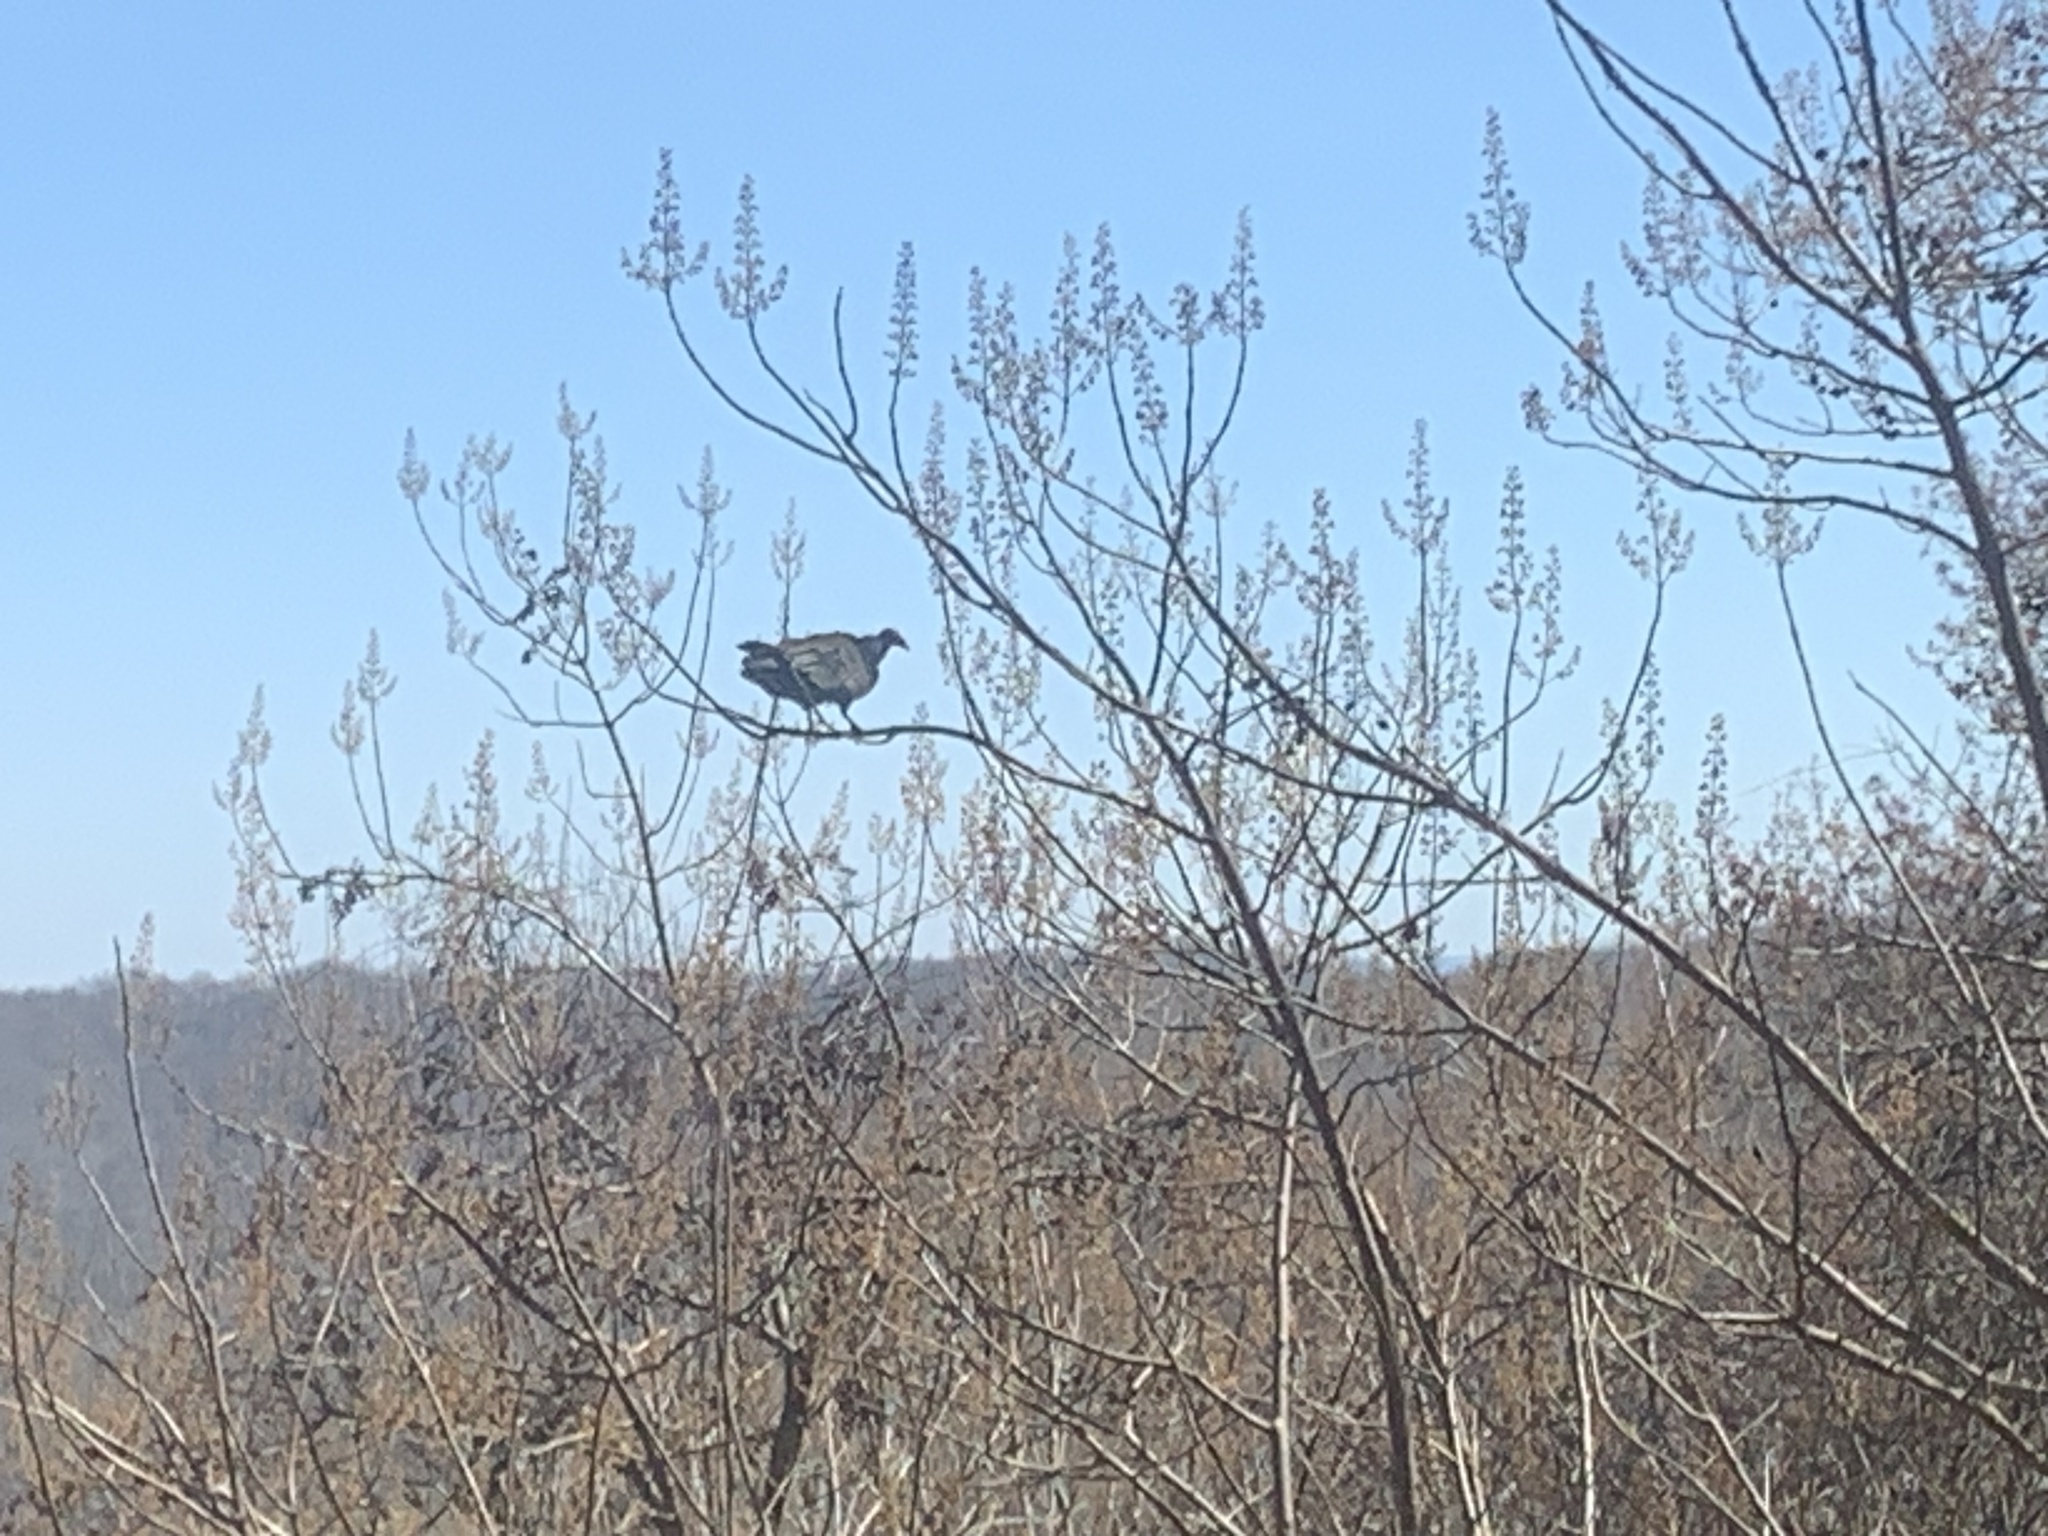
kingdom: Animalia
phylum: Chordata
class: Aves
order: Accipitriformes
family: Cathartidae
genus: Cathartes
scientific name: Cathartes aura
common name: Turkey vulture
